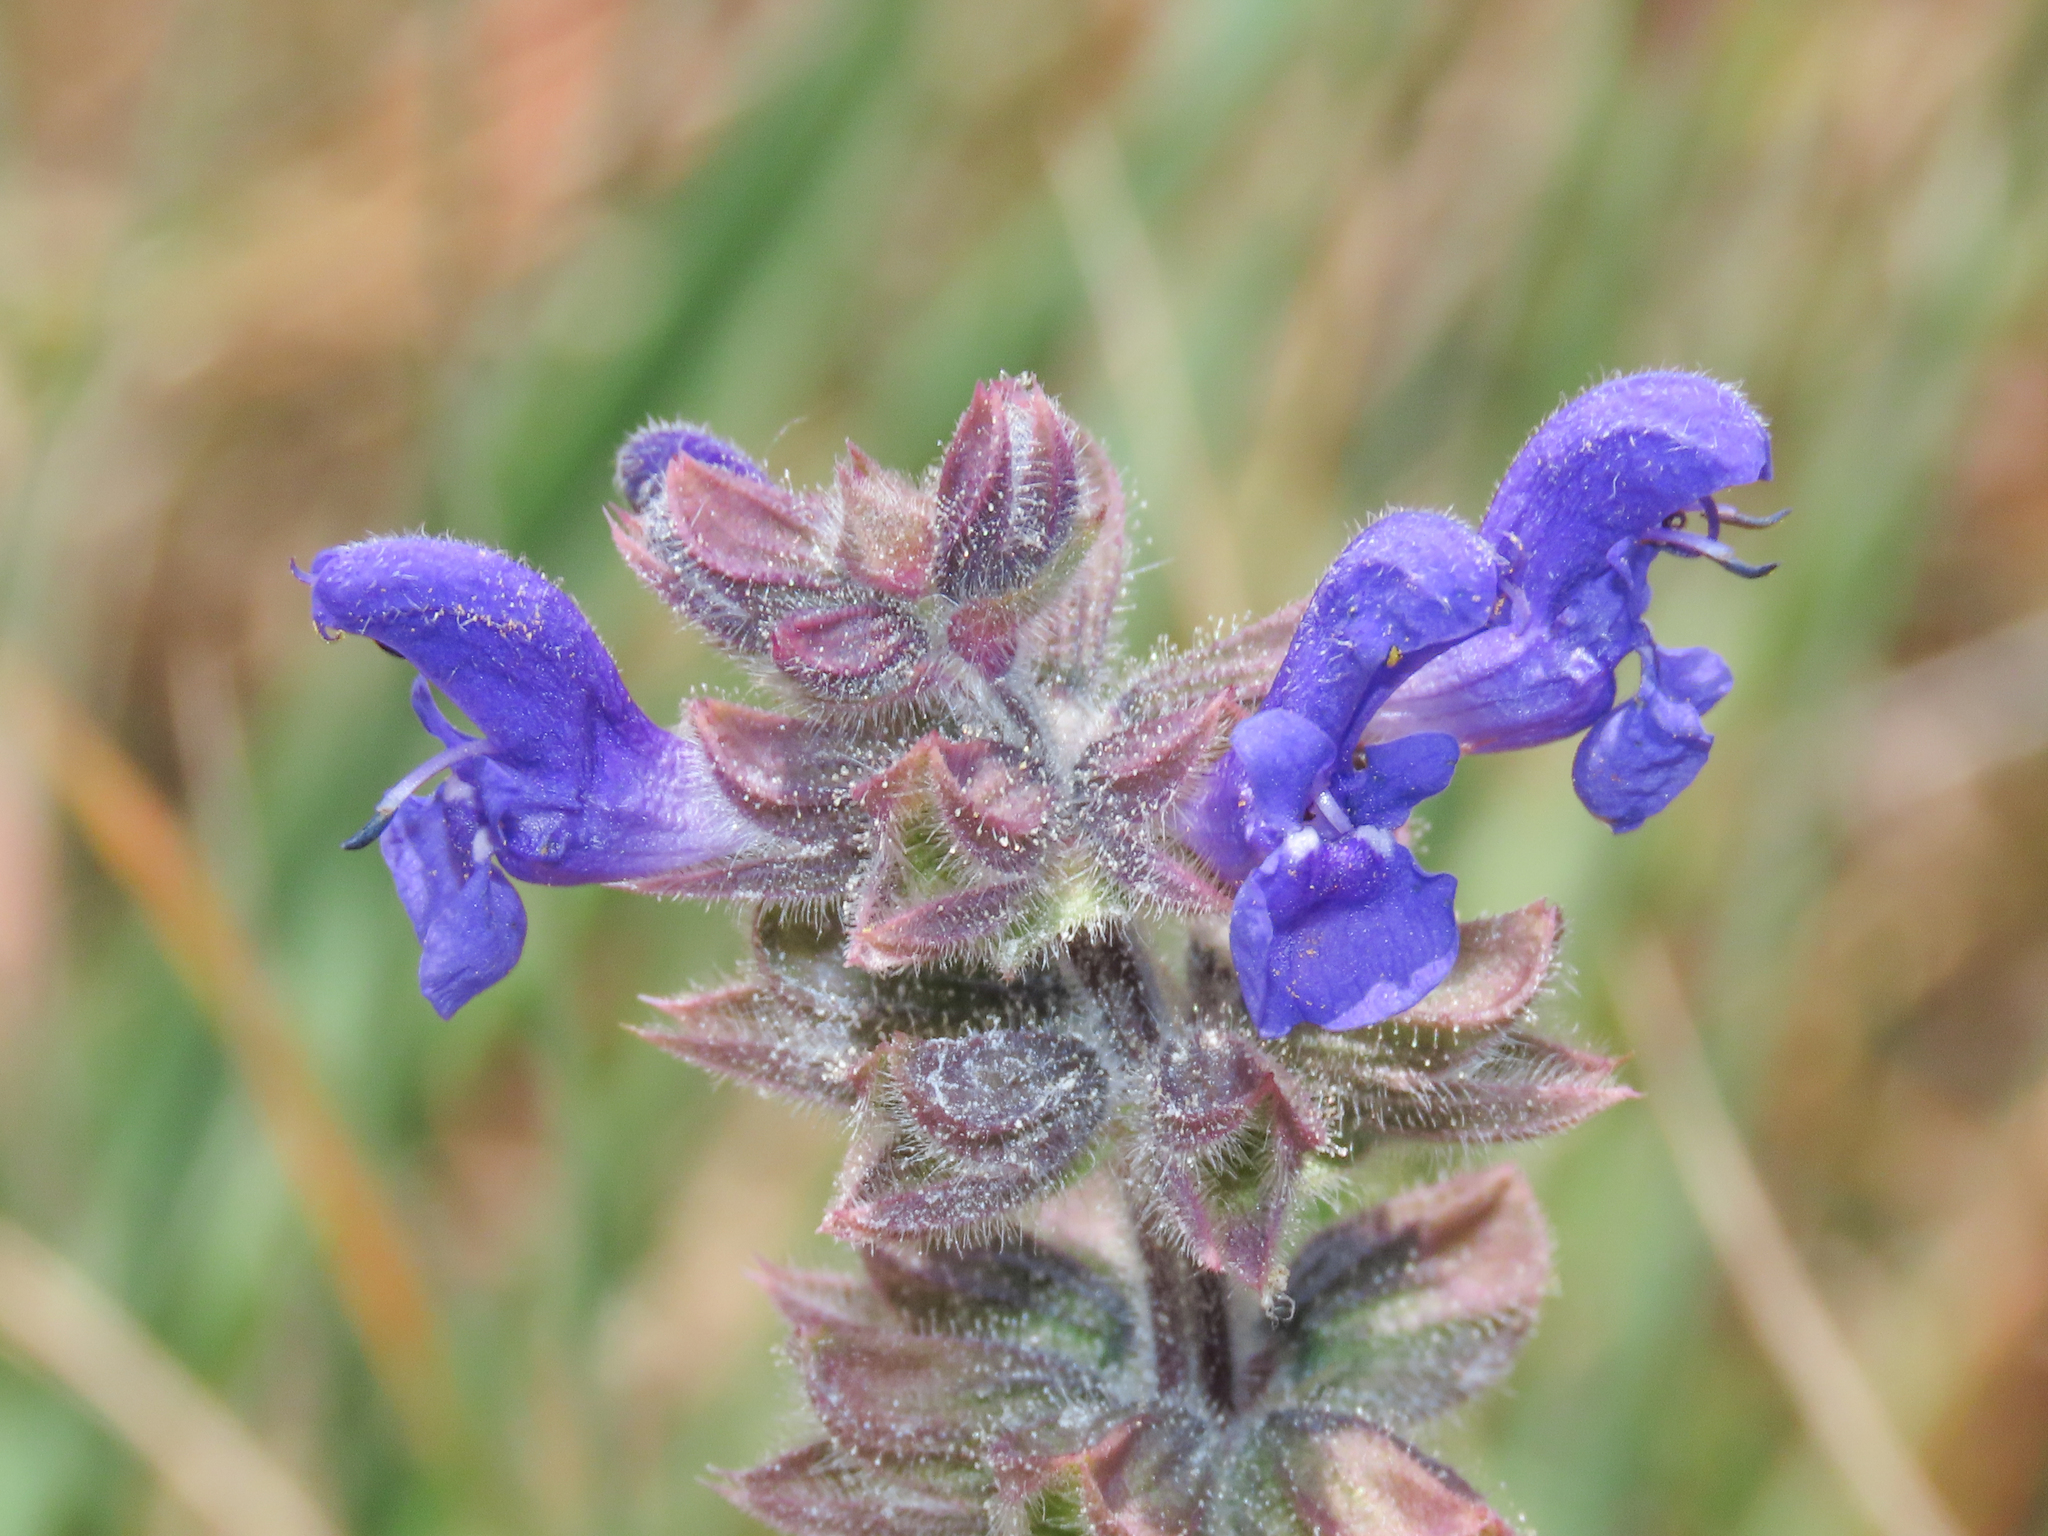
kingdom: Plantae
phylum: Tracheophyta
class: Magnoliopsida
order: Lamiales
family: Lamiaceae
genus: Salvia
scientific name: Salvia verbenaca
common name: Wild clary
